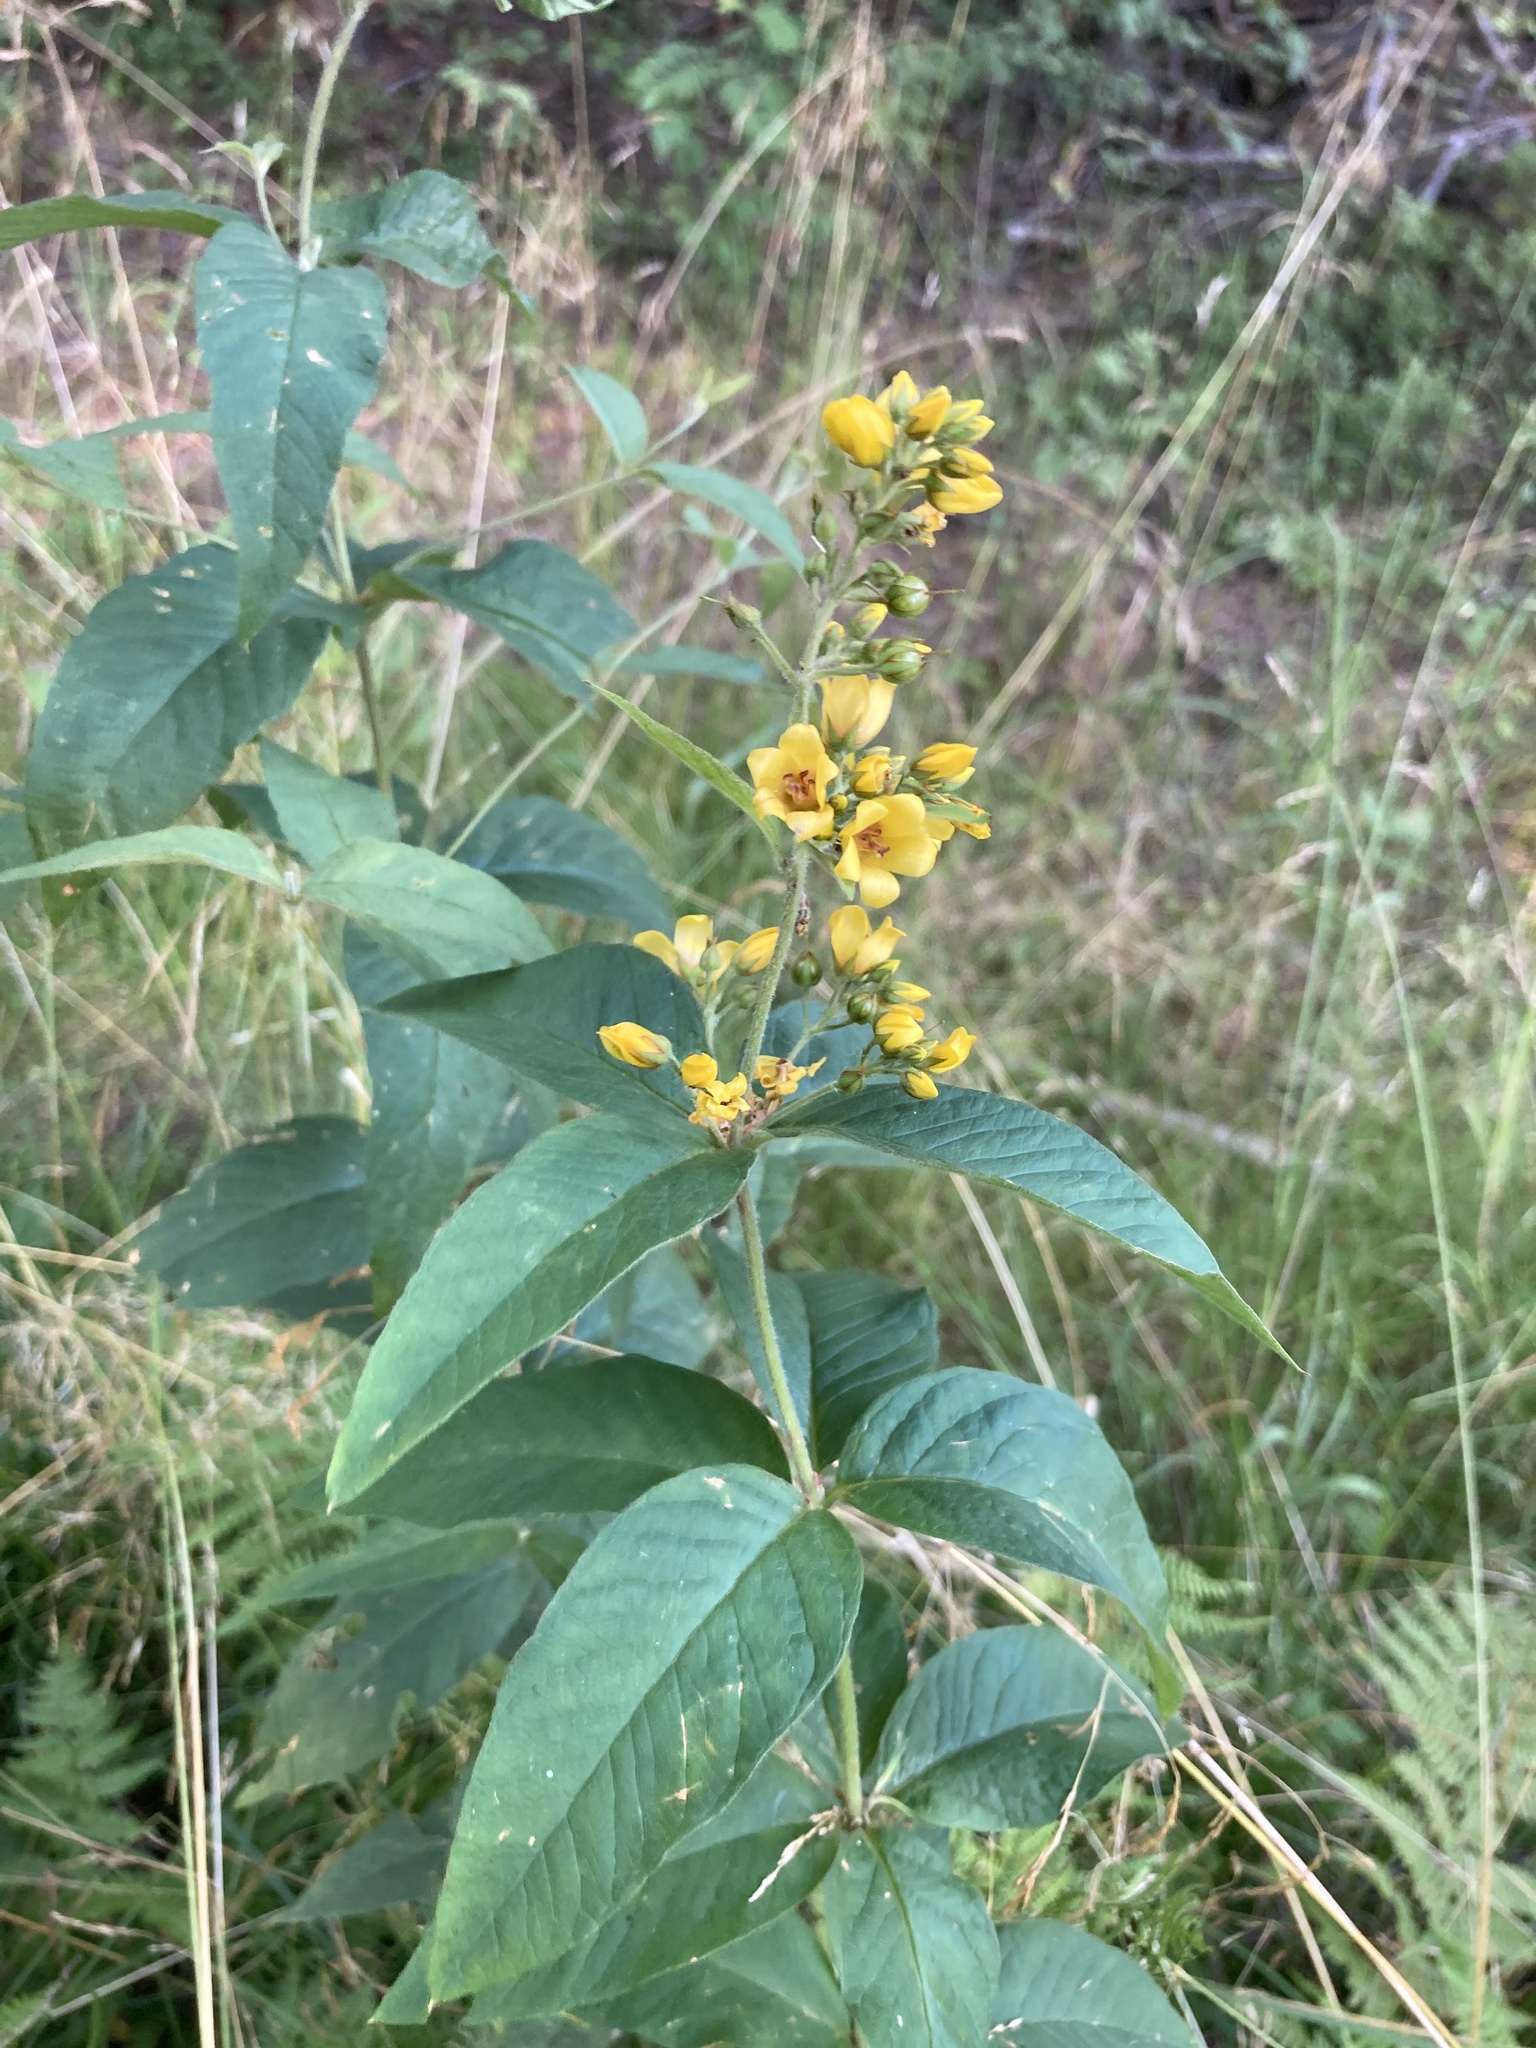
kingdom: Plantae
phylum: Tracheophyta
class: Magnoliopsida
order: Ericales
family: Primulaceae
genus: Lysimachia
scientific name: Lysimachia vulgaris
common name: Yellow loosestrife
